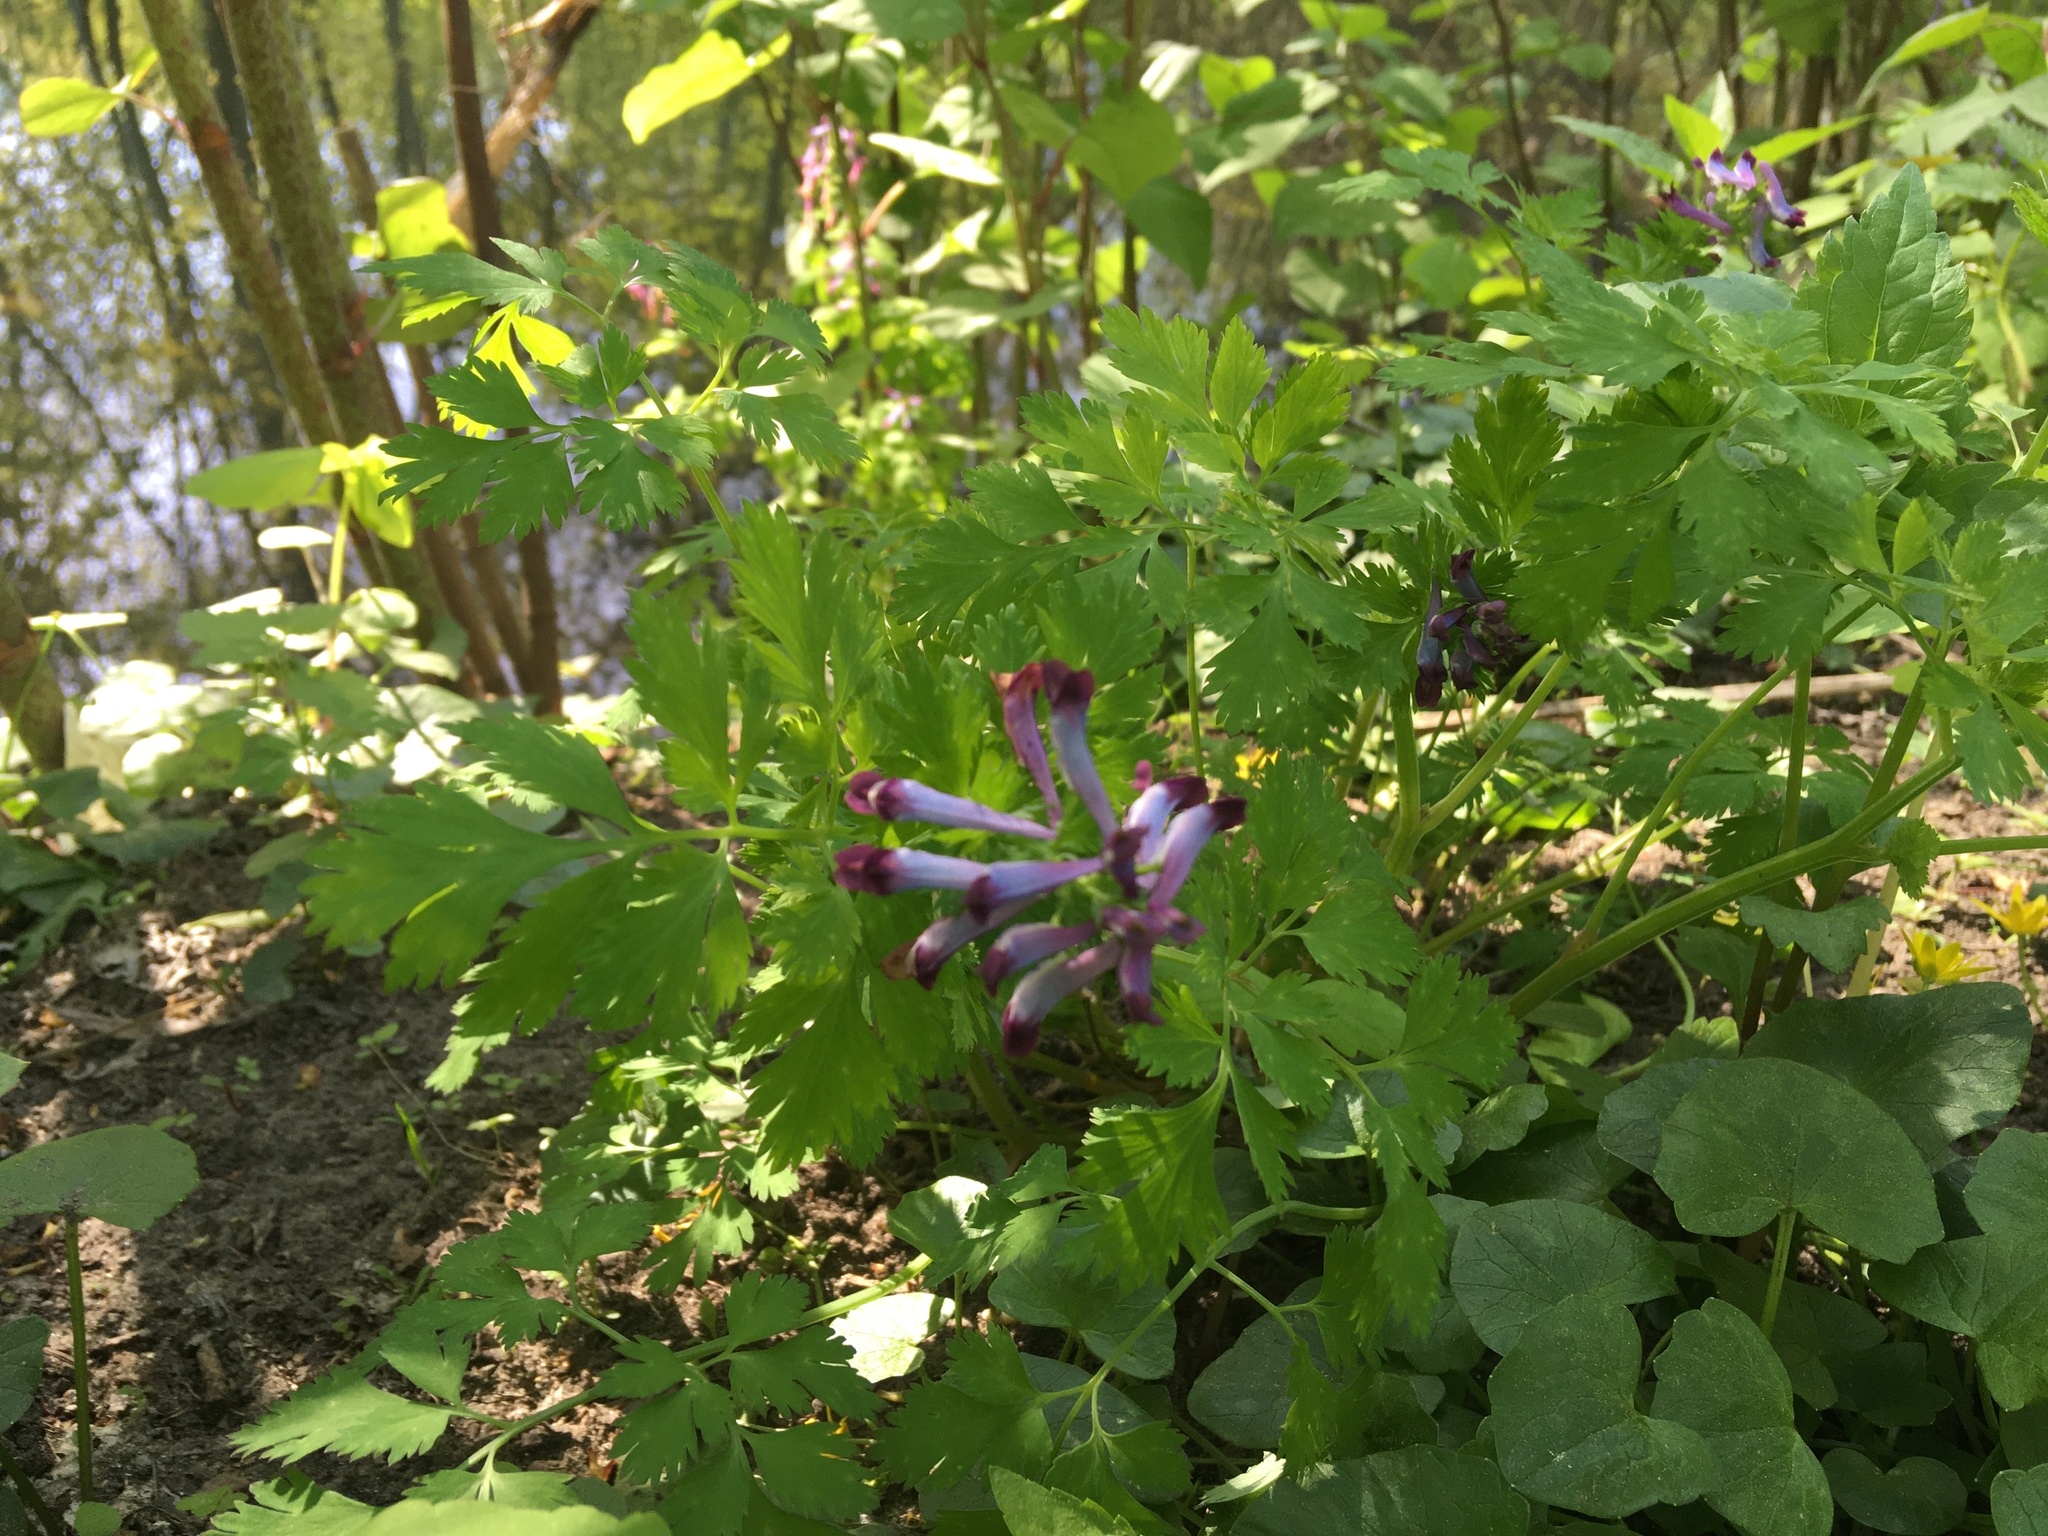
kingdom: Plantae
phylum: Tracheophyta
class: Magnoliopsida
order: Ranunculales
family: Papaveraceae
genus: Corydalis
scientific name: Corydalis incisa
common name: Incised fumewort
